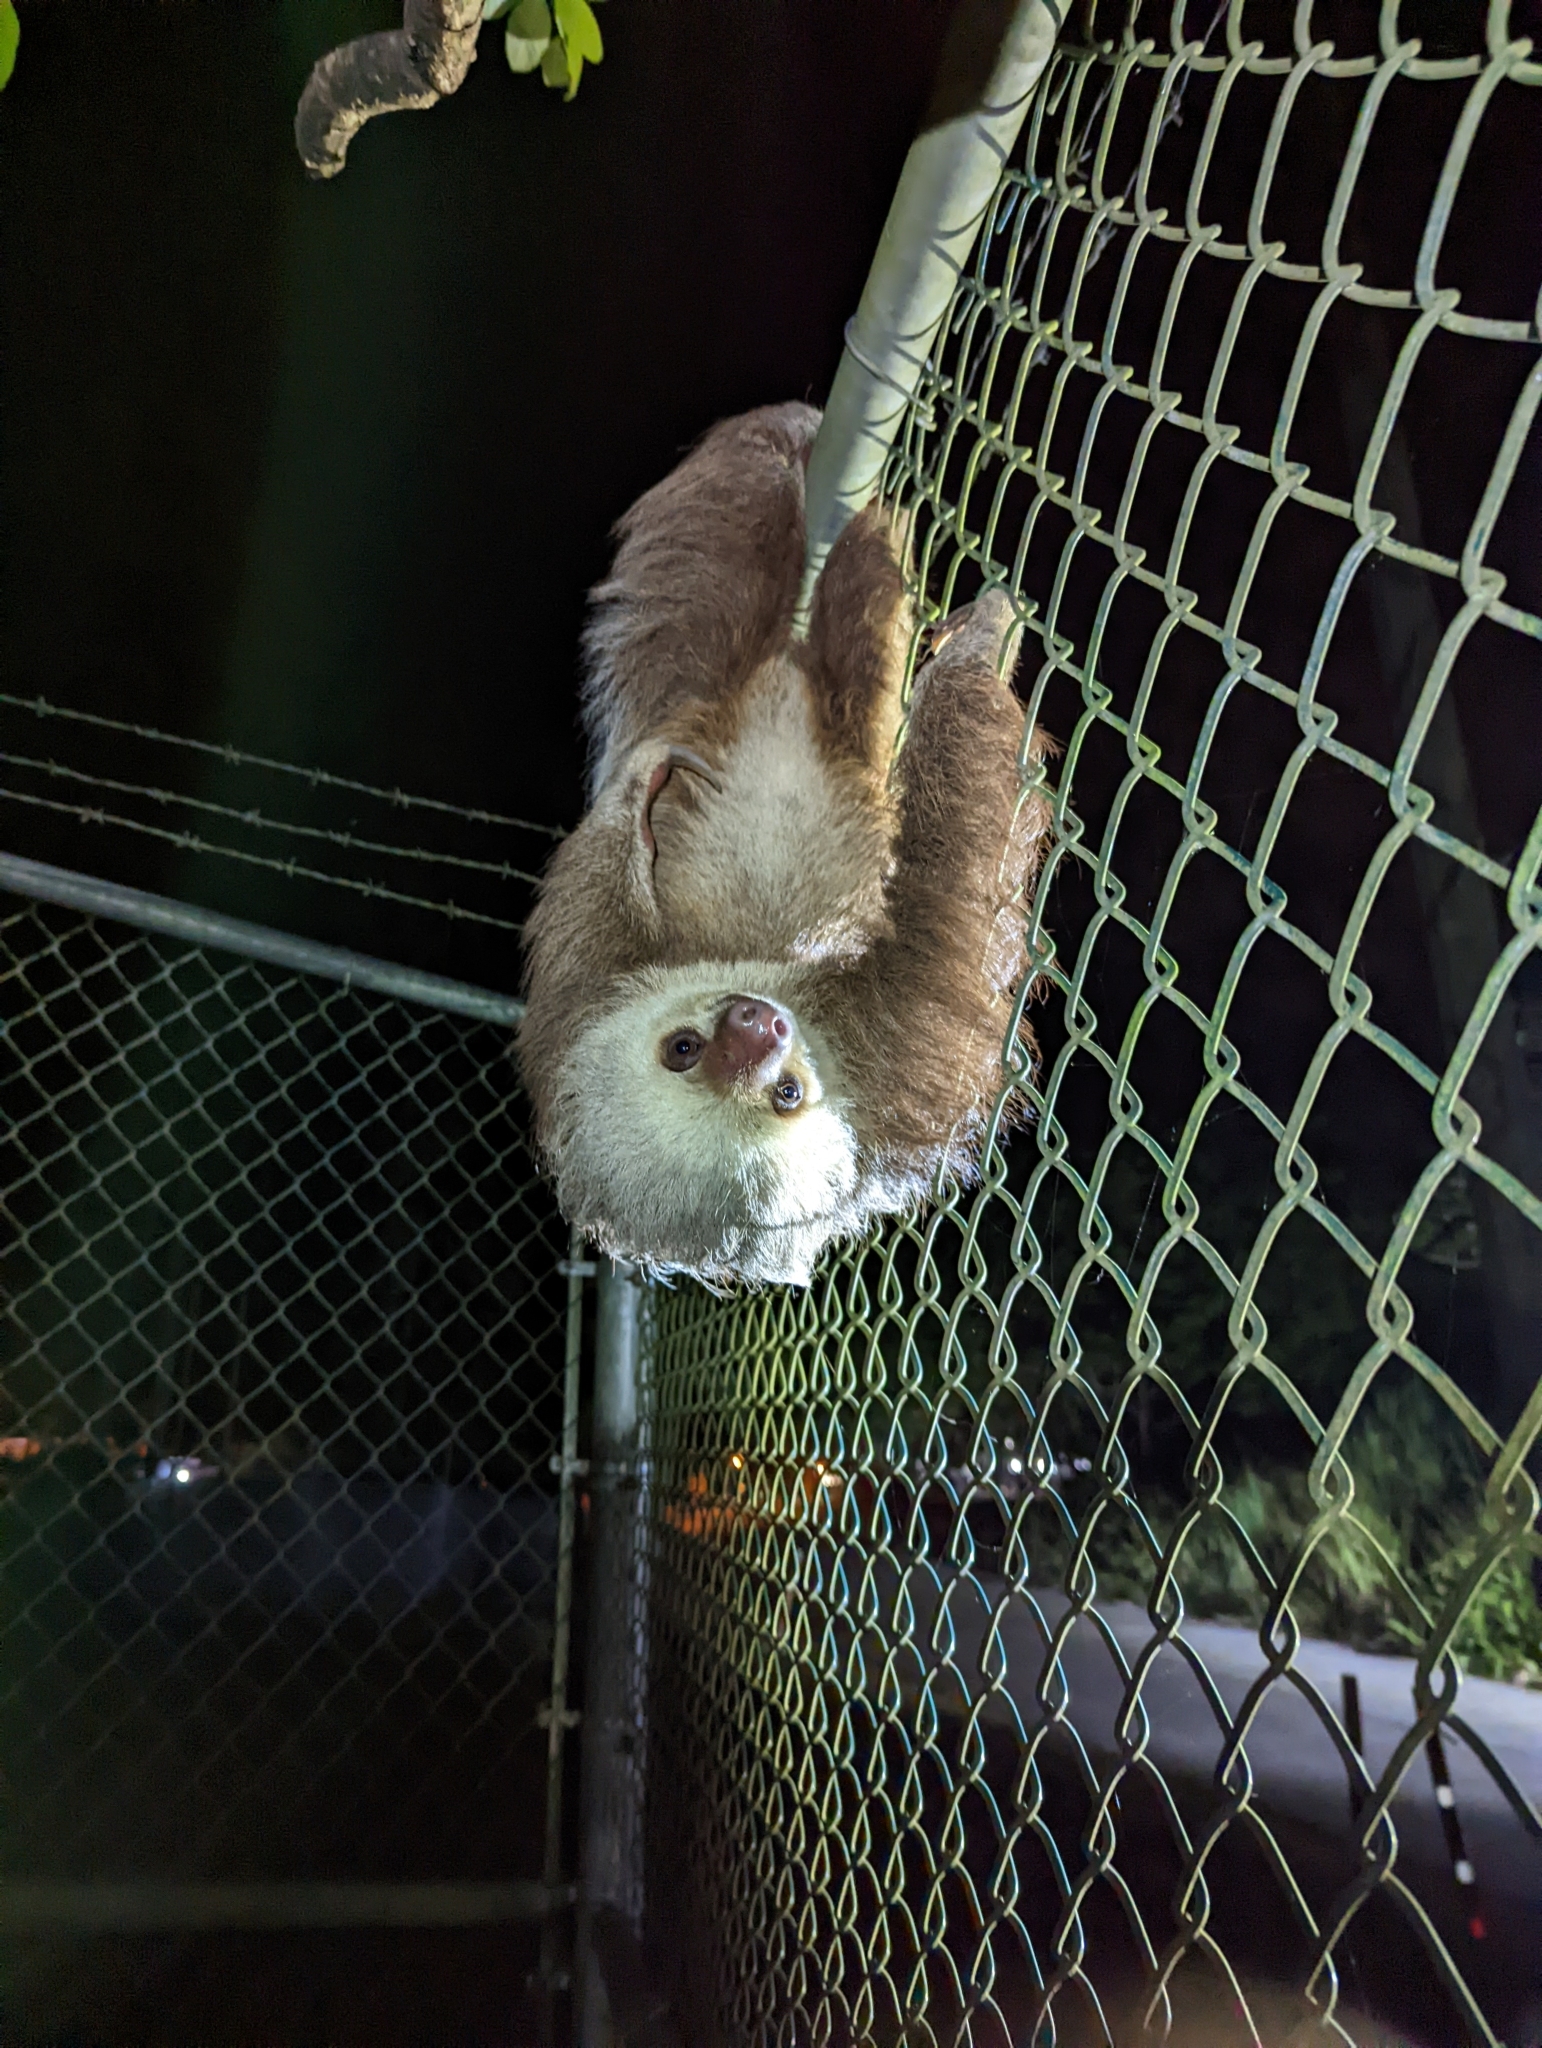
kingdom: Animalia
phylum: Chordata
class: Mammalia
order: Pilosa
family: Megalonychidae
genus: Choloepus
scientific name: Choloepus hoffmanni
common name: Hoffmann's two-toed sloth
